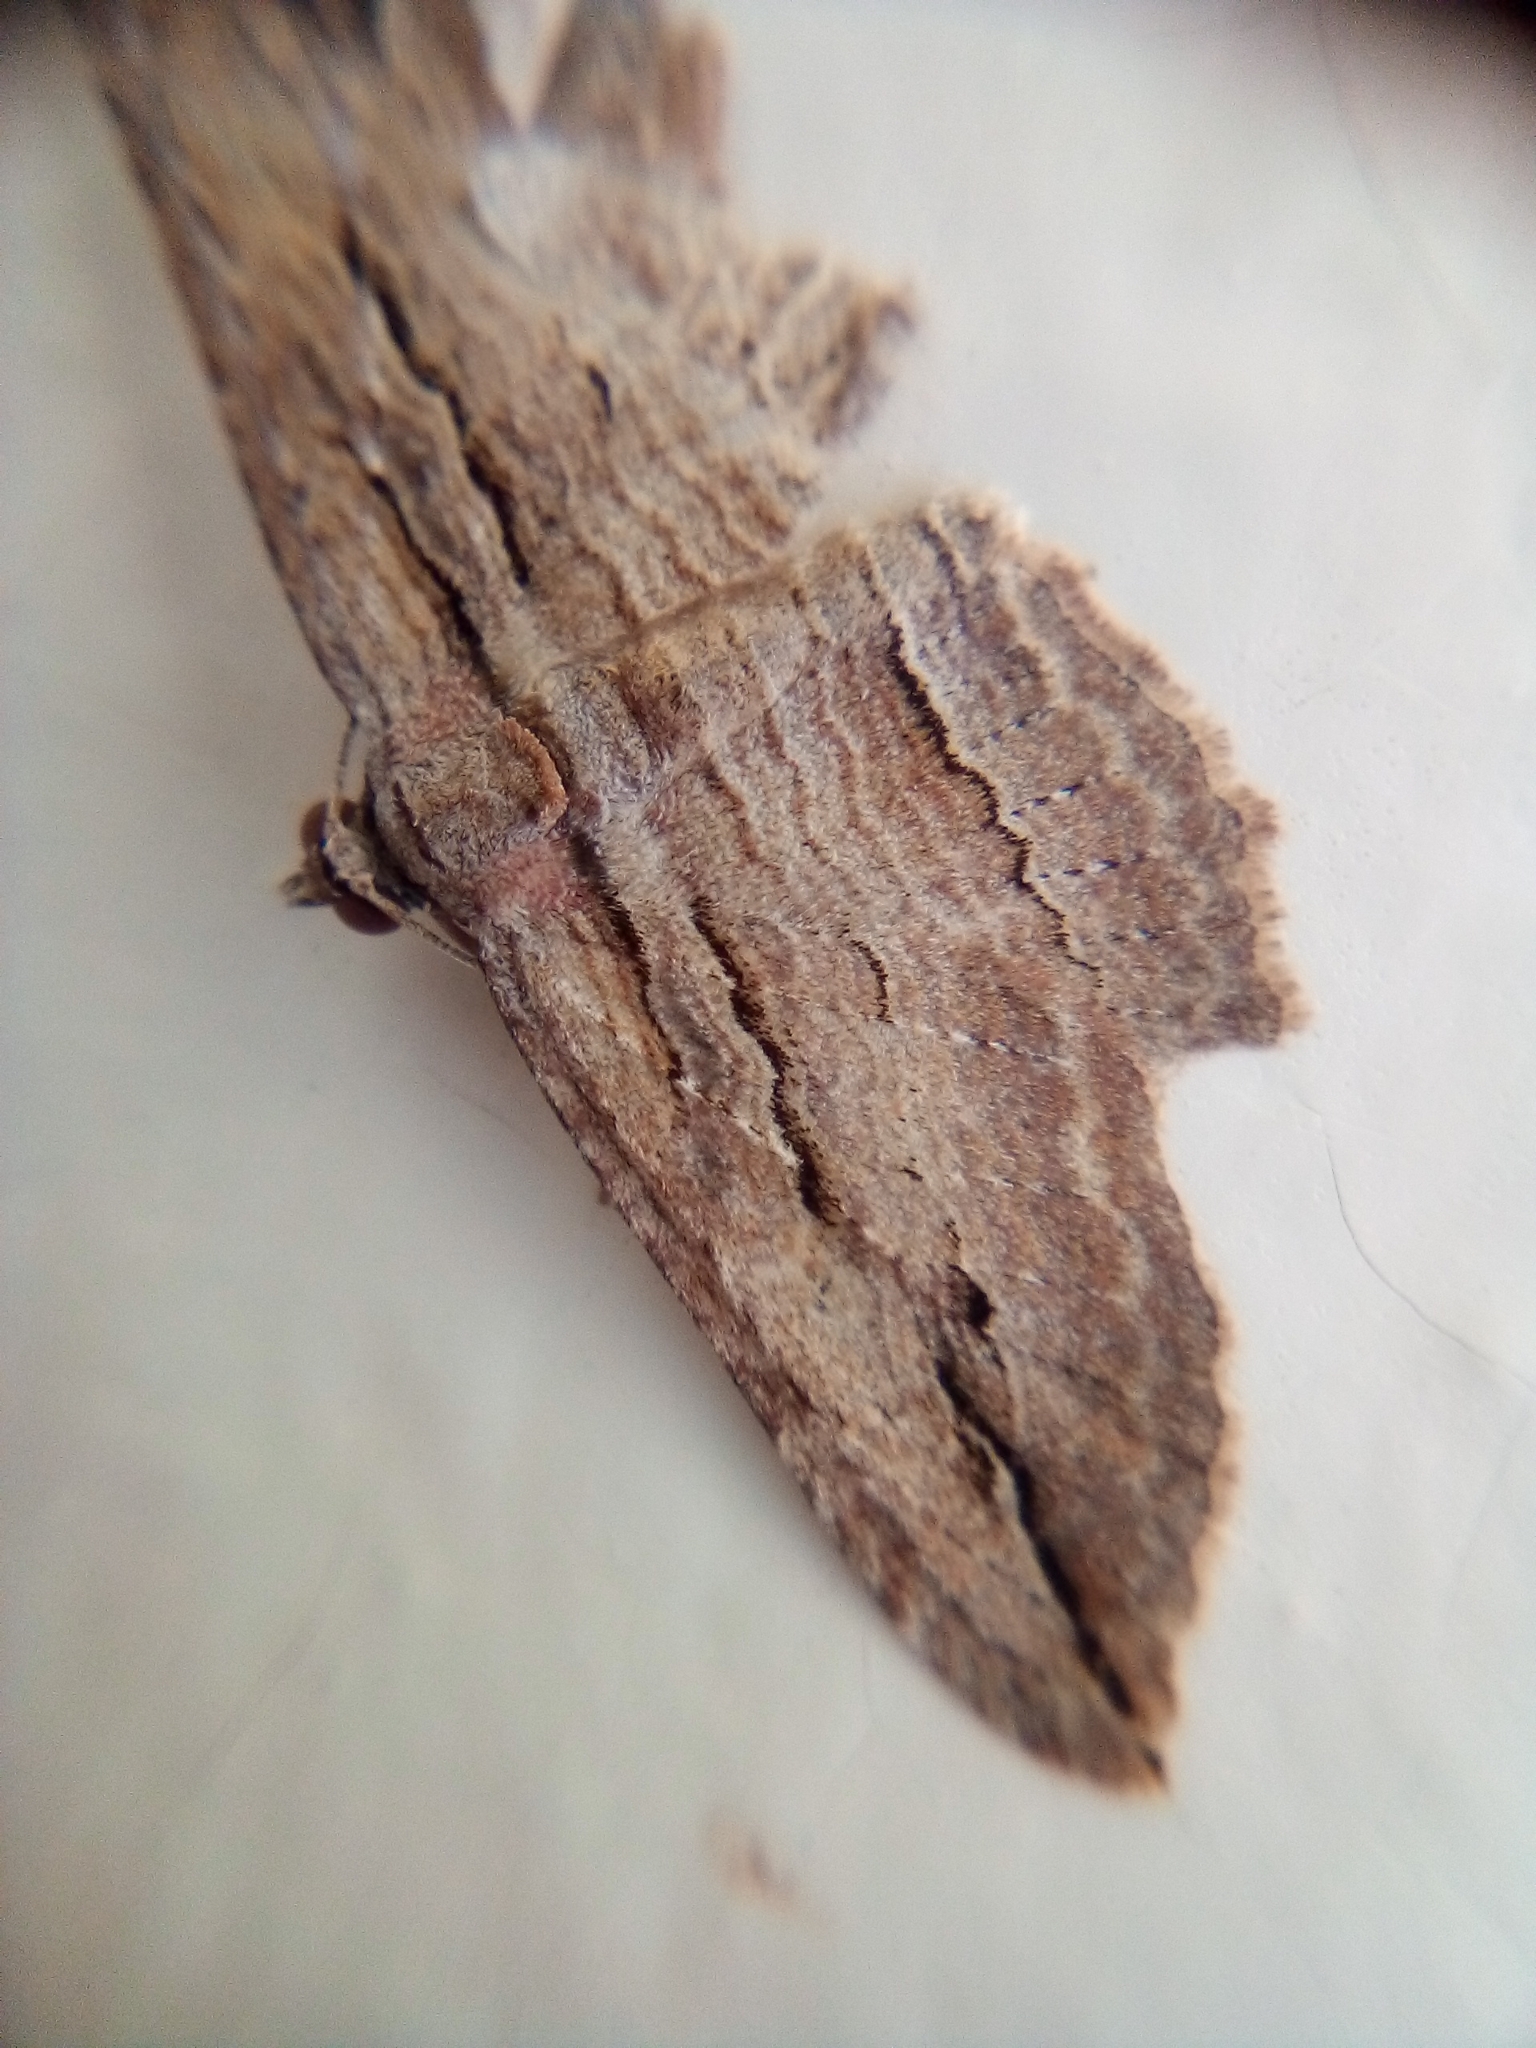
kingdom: Animalia
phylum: Arthropoda
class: Insecta
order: Lepidoptera
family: Geometridae
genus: Austrocidaria
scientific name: Austrocidaria gobiata
